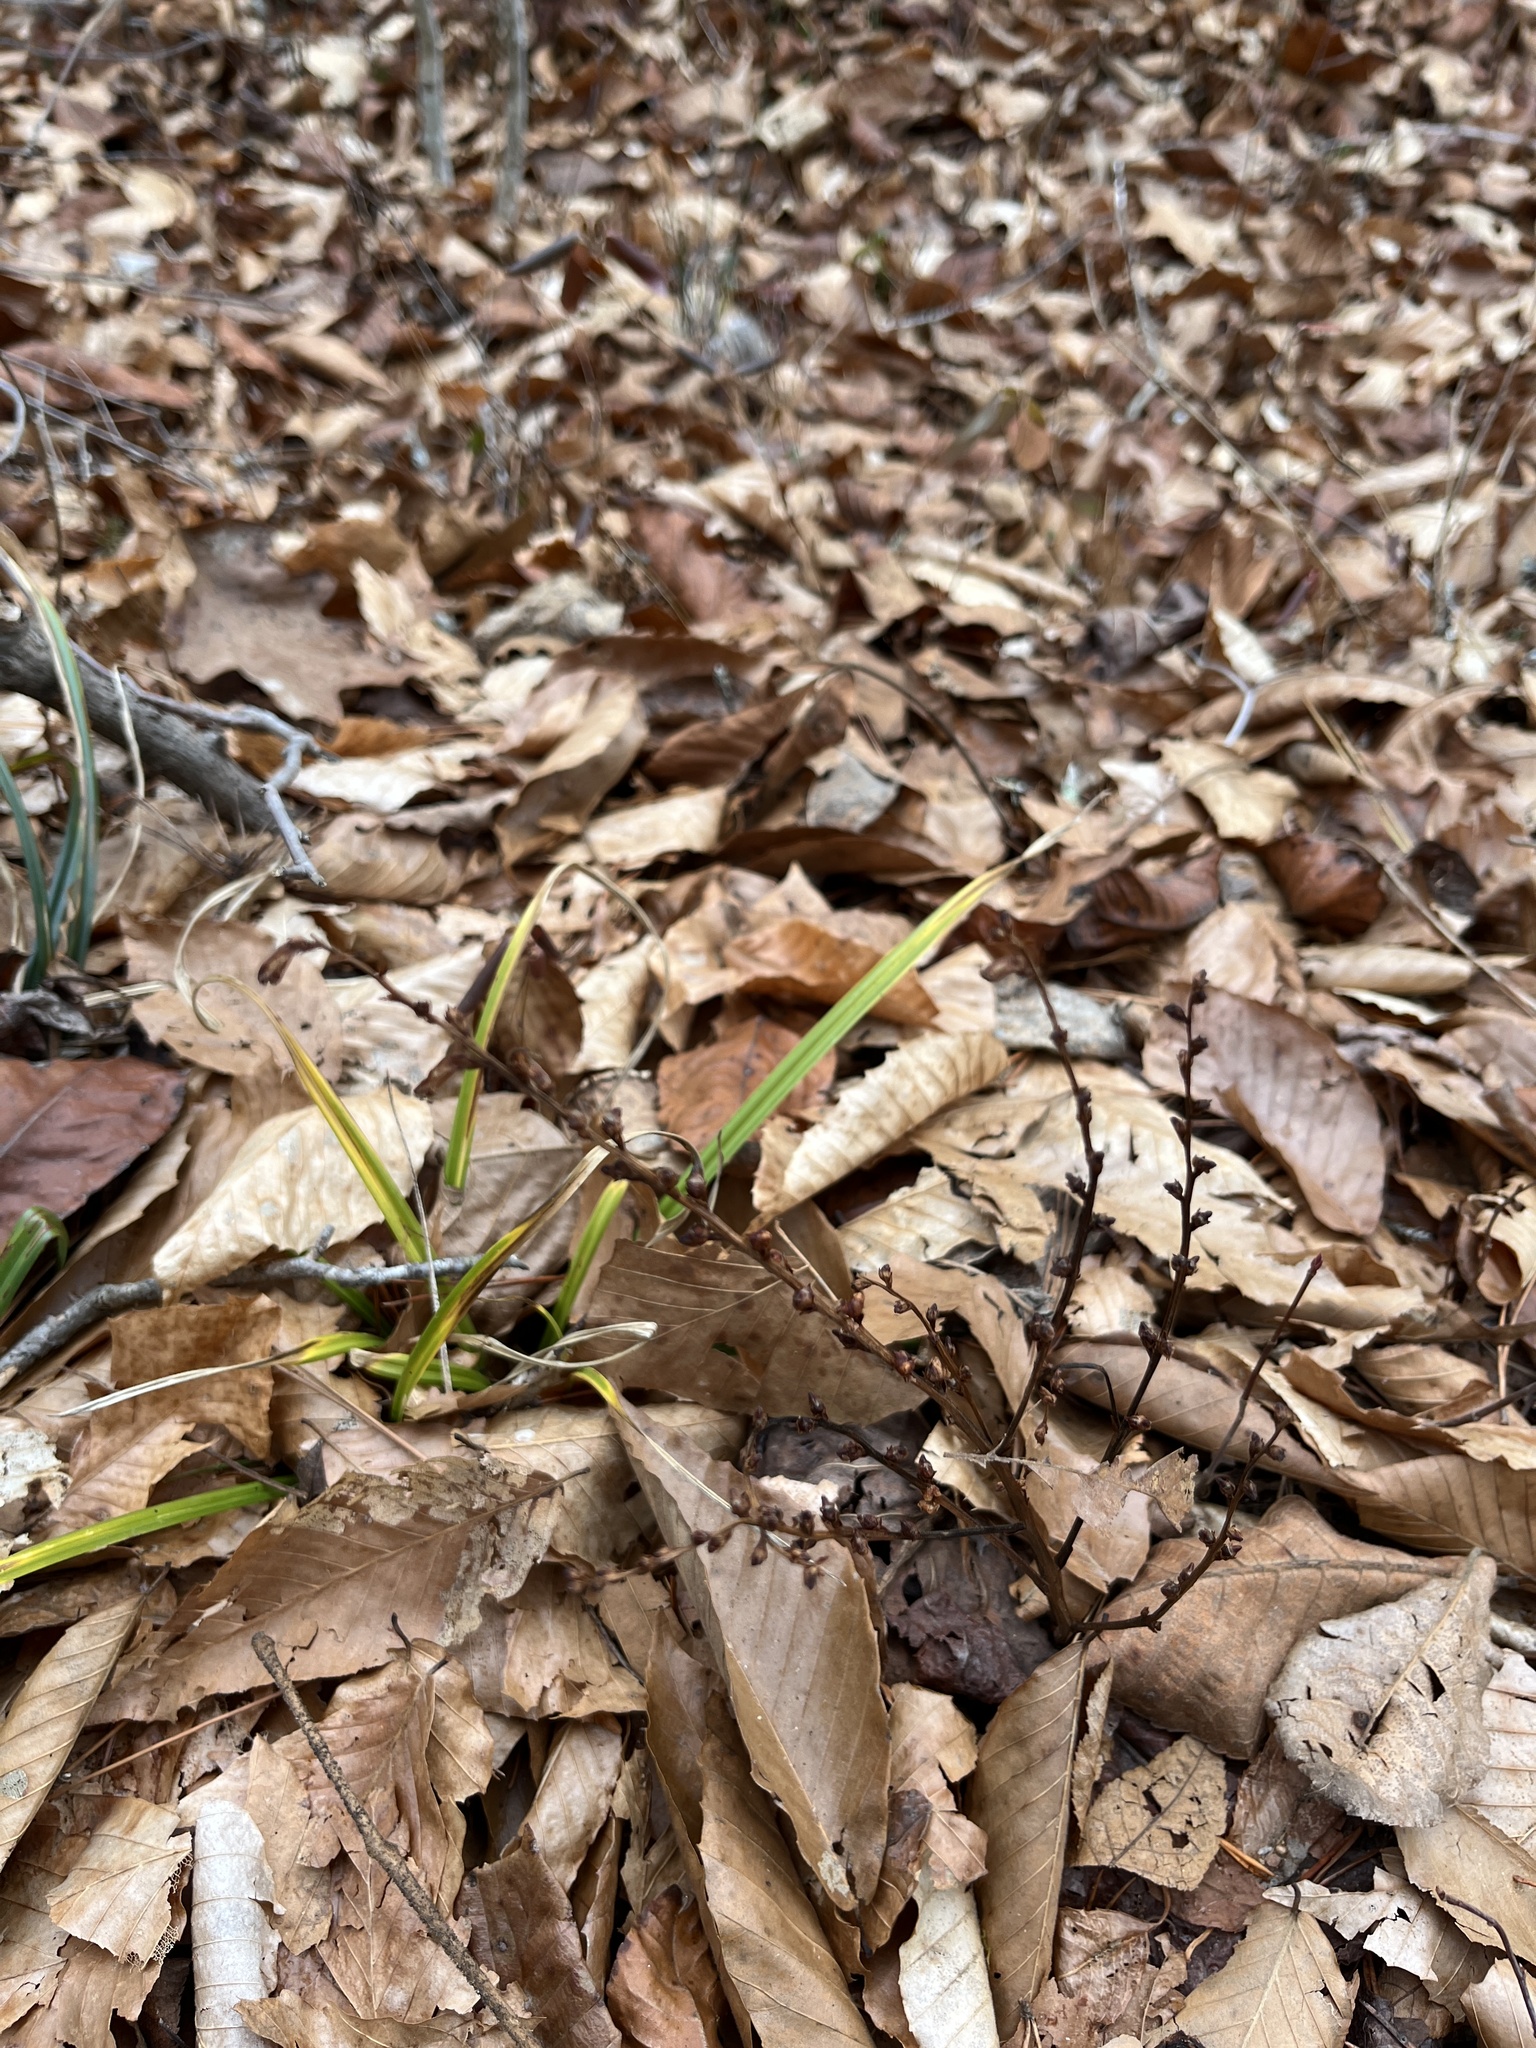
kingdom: Plantae
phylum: Tracheophyta
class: Magnoliopsida
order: Lamiales
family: Orobanchaceae
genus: Epifagus
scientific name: Epifagus virginiana
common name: Beechdrops
